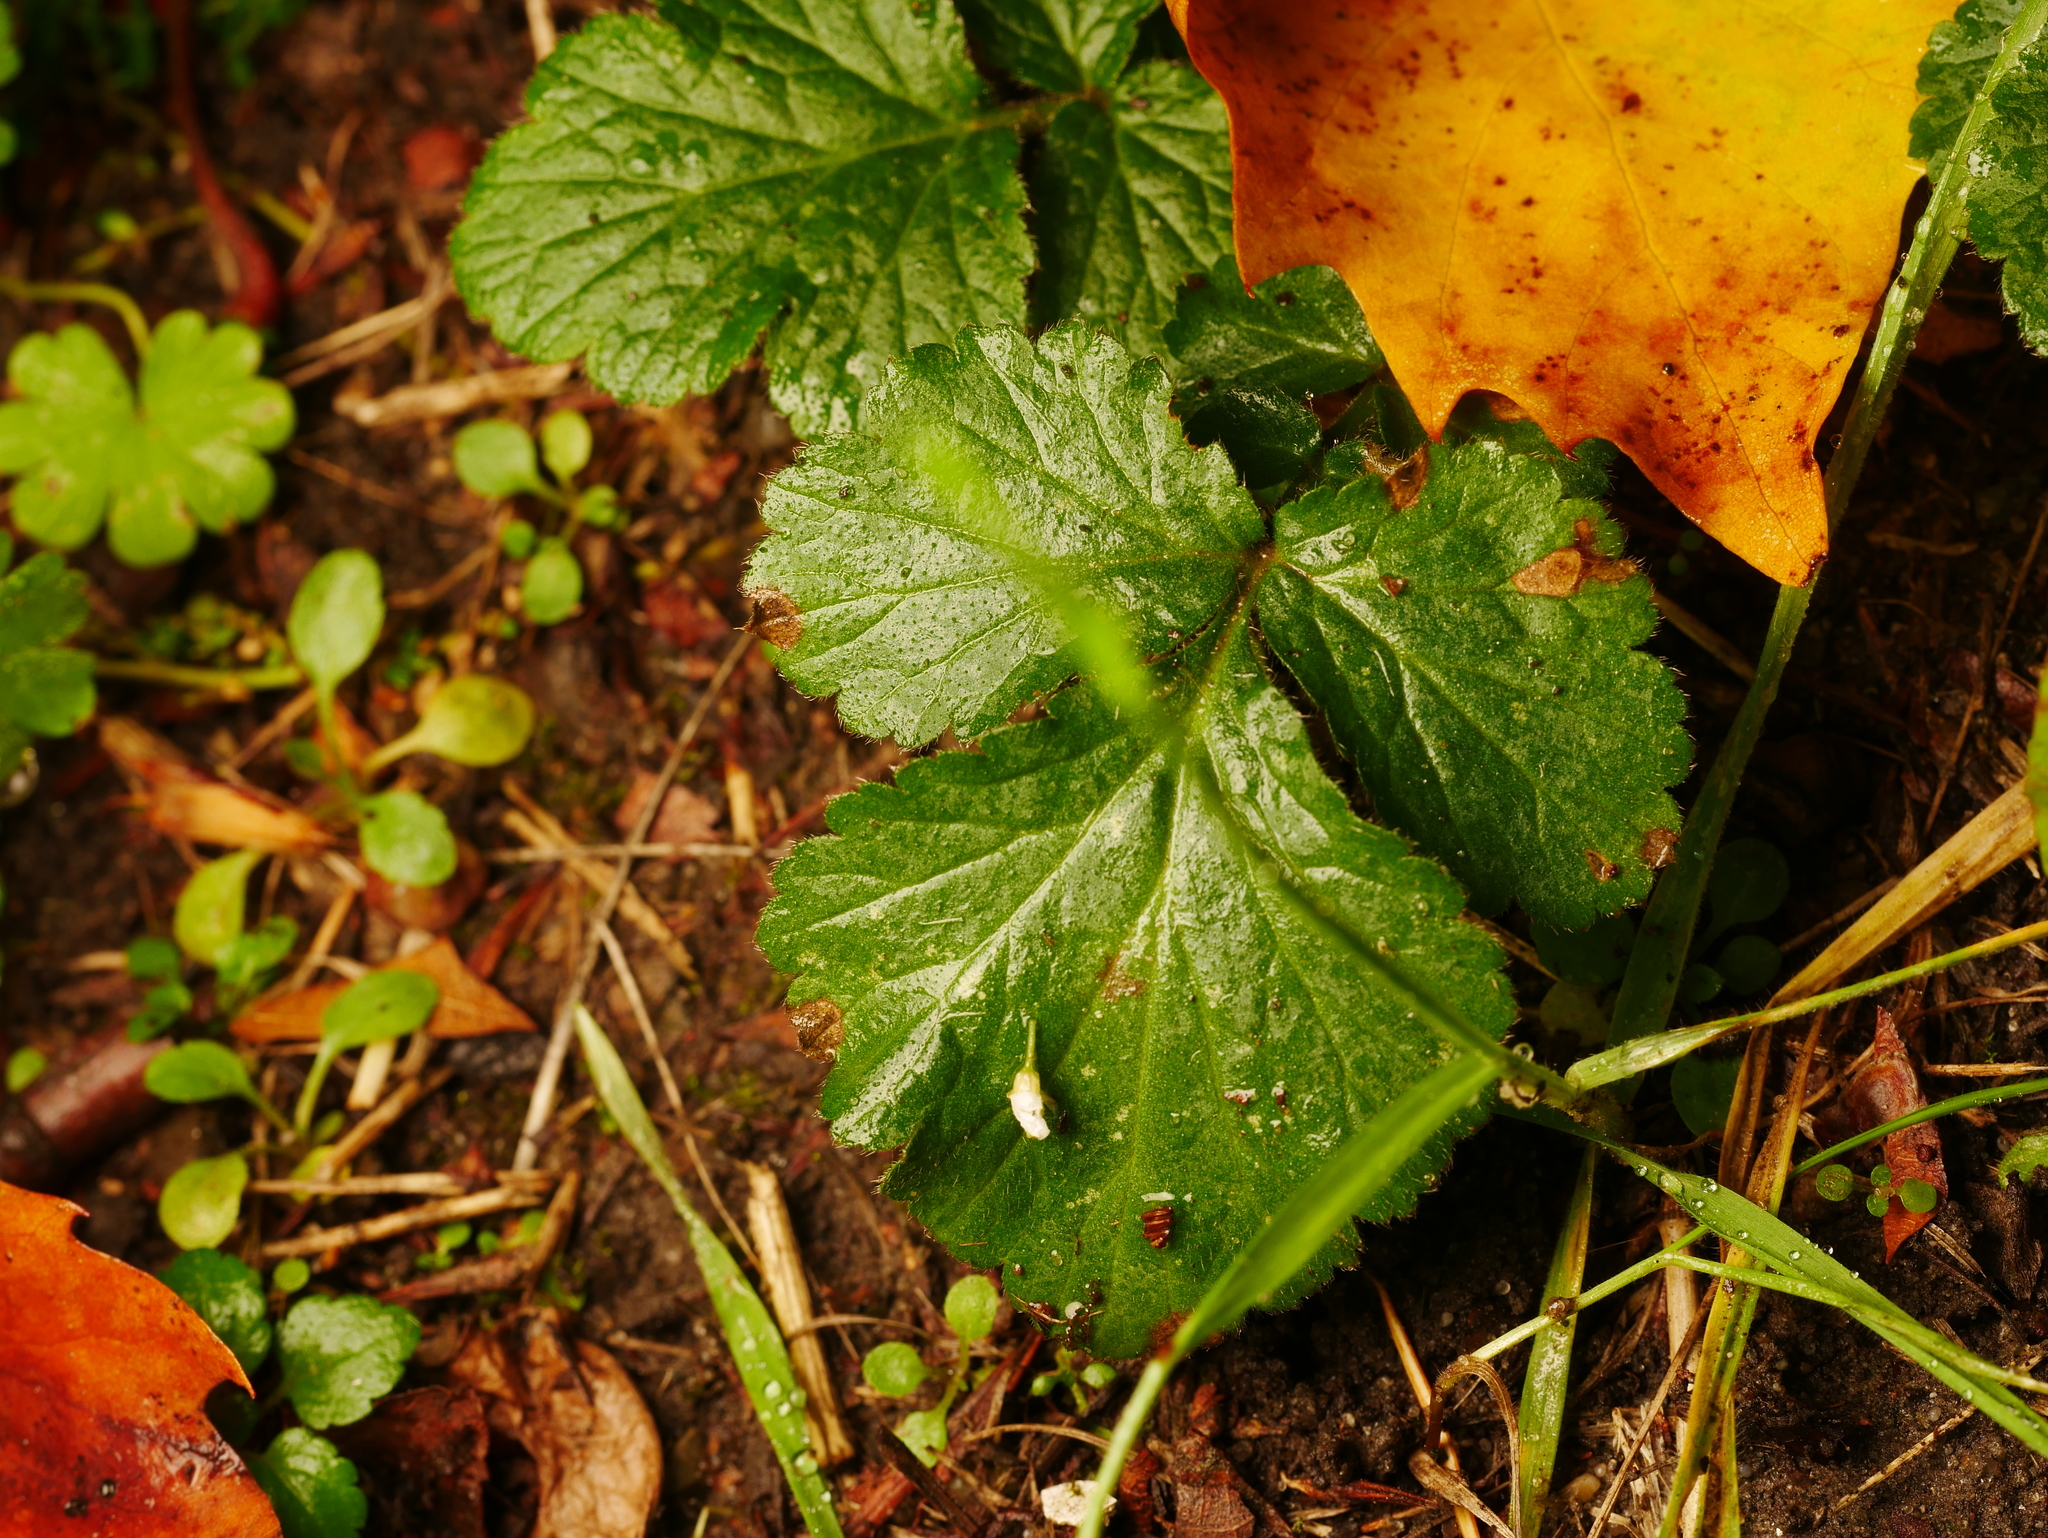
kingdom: Plantae
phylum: Tracheophyta
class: Magnoliopsida
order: Rosales
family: Rosaceae
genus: Geum
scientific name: Geum urbanum
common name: Wood avens
